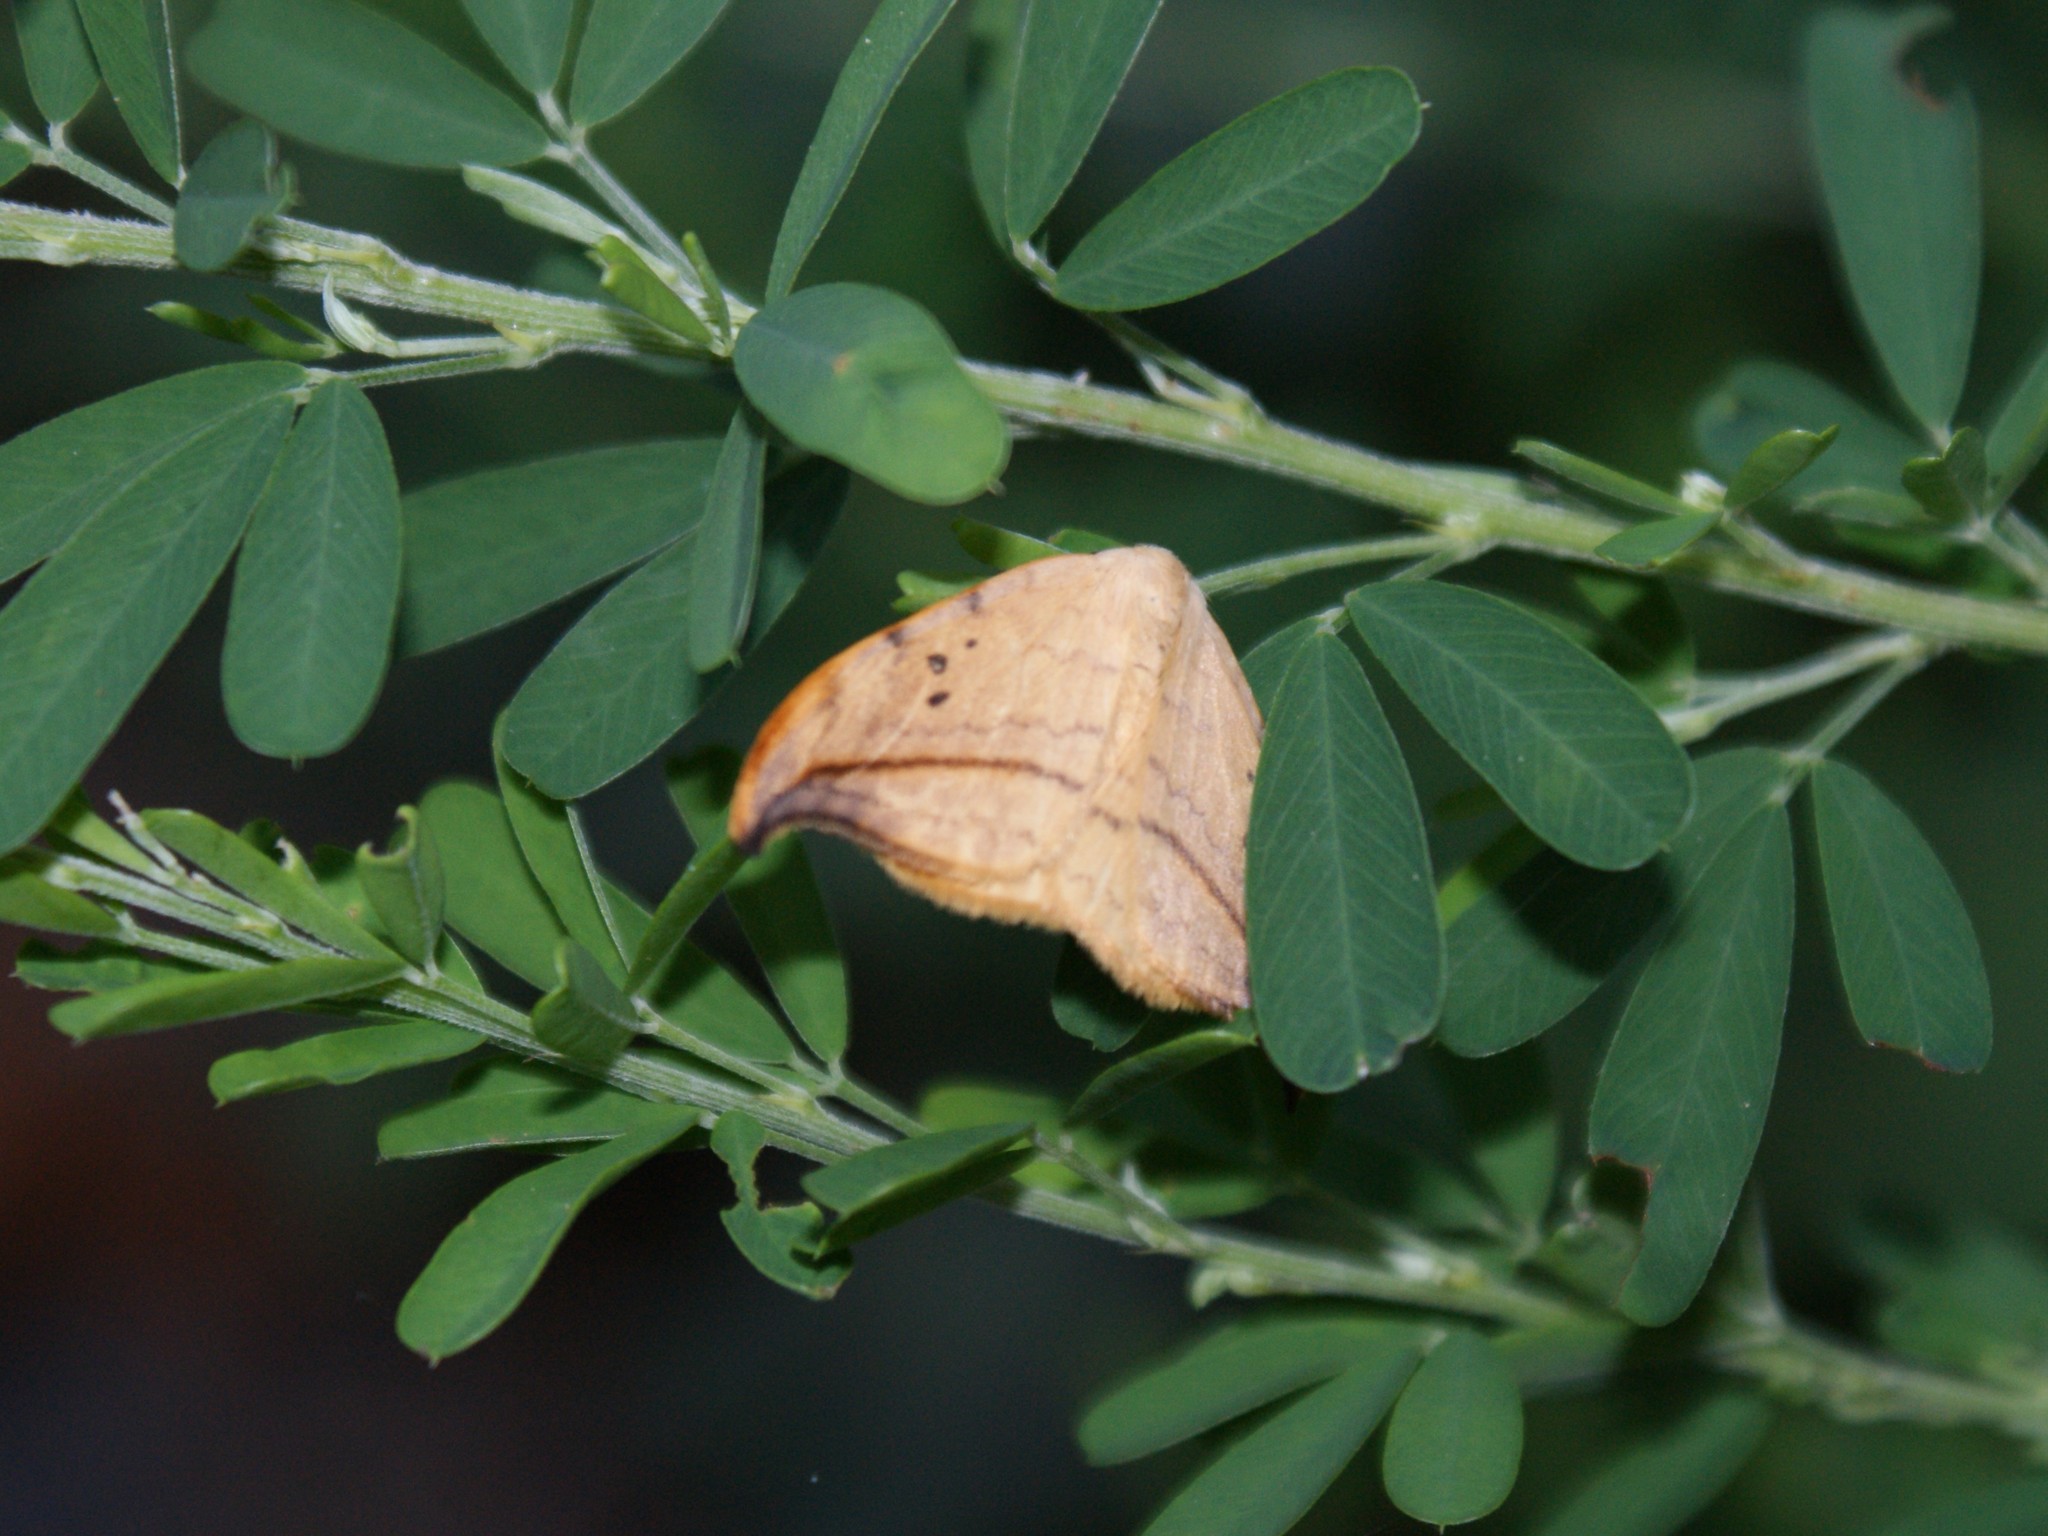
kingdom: Animalia
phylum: Arthropoda
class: Insecta
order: Lepidoptera
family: Drepanidae
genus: Drepana
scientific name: Drepana arcuata
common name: Arched hooktip moth
